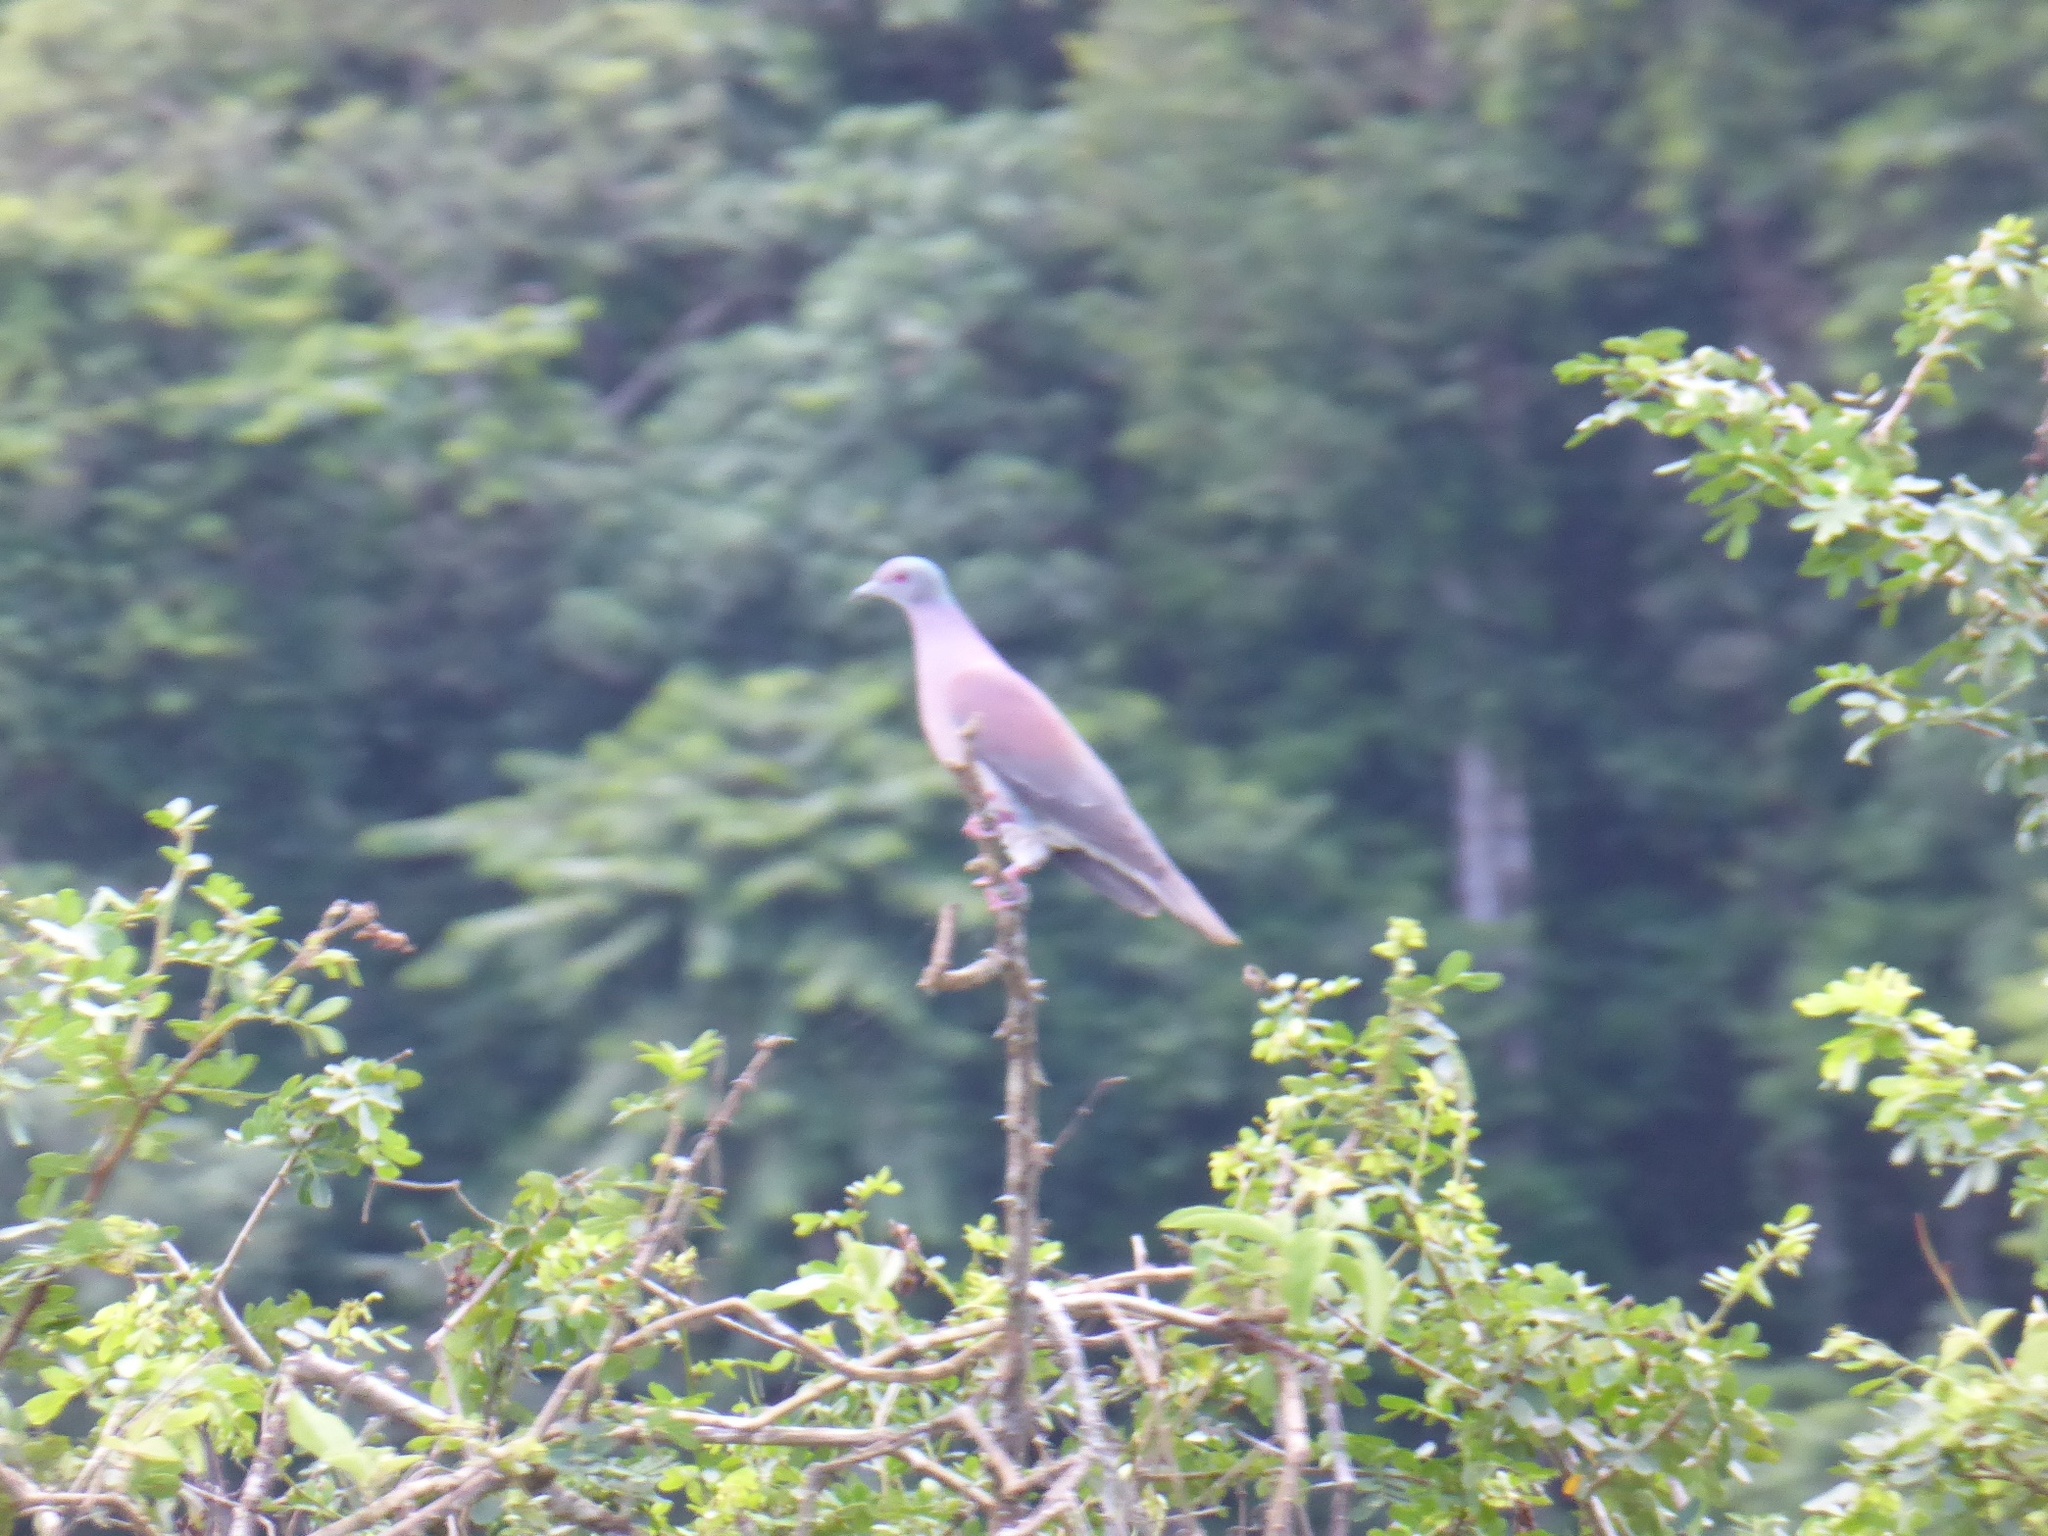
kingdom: Animalia
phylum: Chordata
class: Aves
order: Columbiformes
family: Columbidae
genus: Patagioenas
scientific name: Patagioenas cayennensis
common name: Pale-vented pigeon
